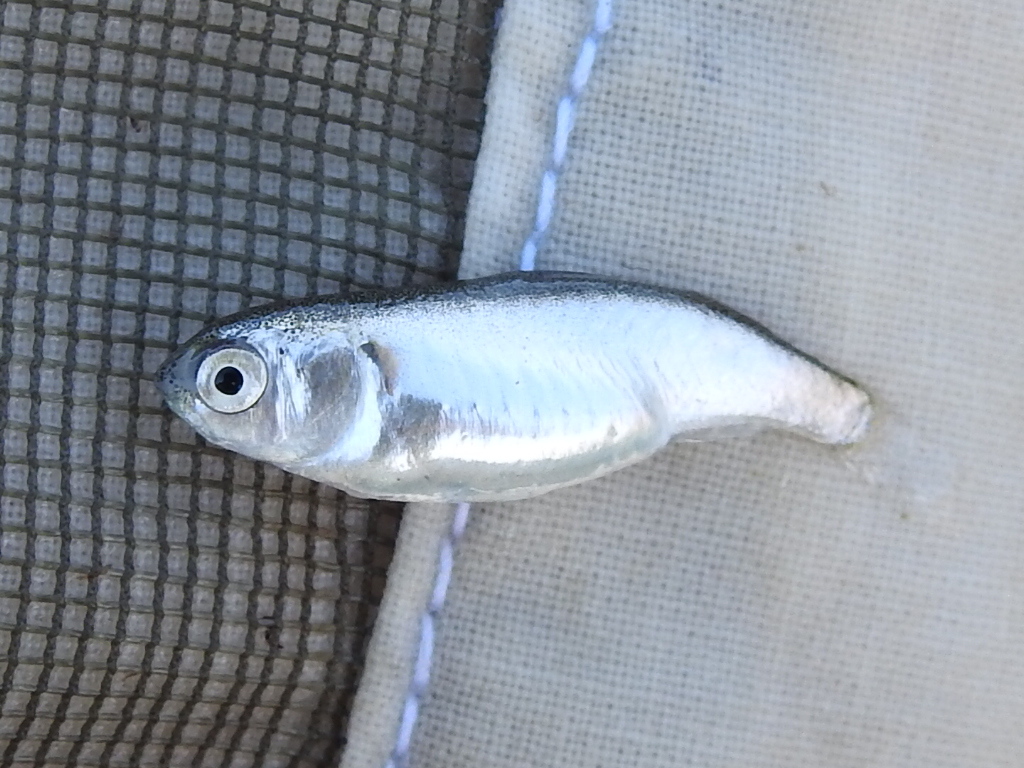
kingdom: Animalia
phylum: Chordata
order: Mugiliformes
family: Mugilidae
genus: Mugil
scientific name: Mugil
